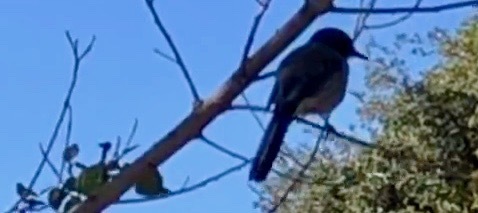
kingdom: Animalia
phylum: Chordata
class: Aves
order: Passeriformes
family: Corvidae
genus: Aphelocoma
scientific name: Aphelocoma californica
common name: California scrub-jay
